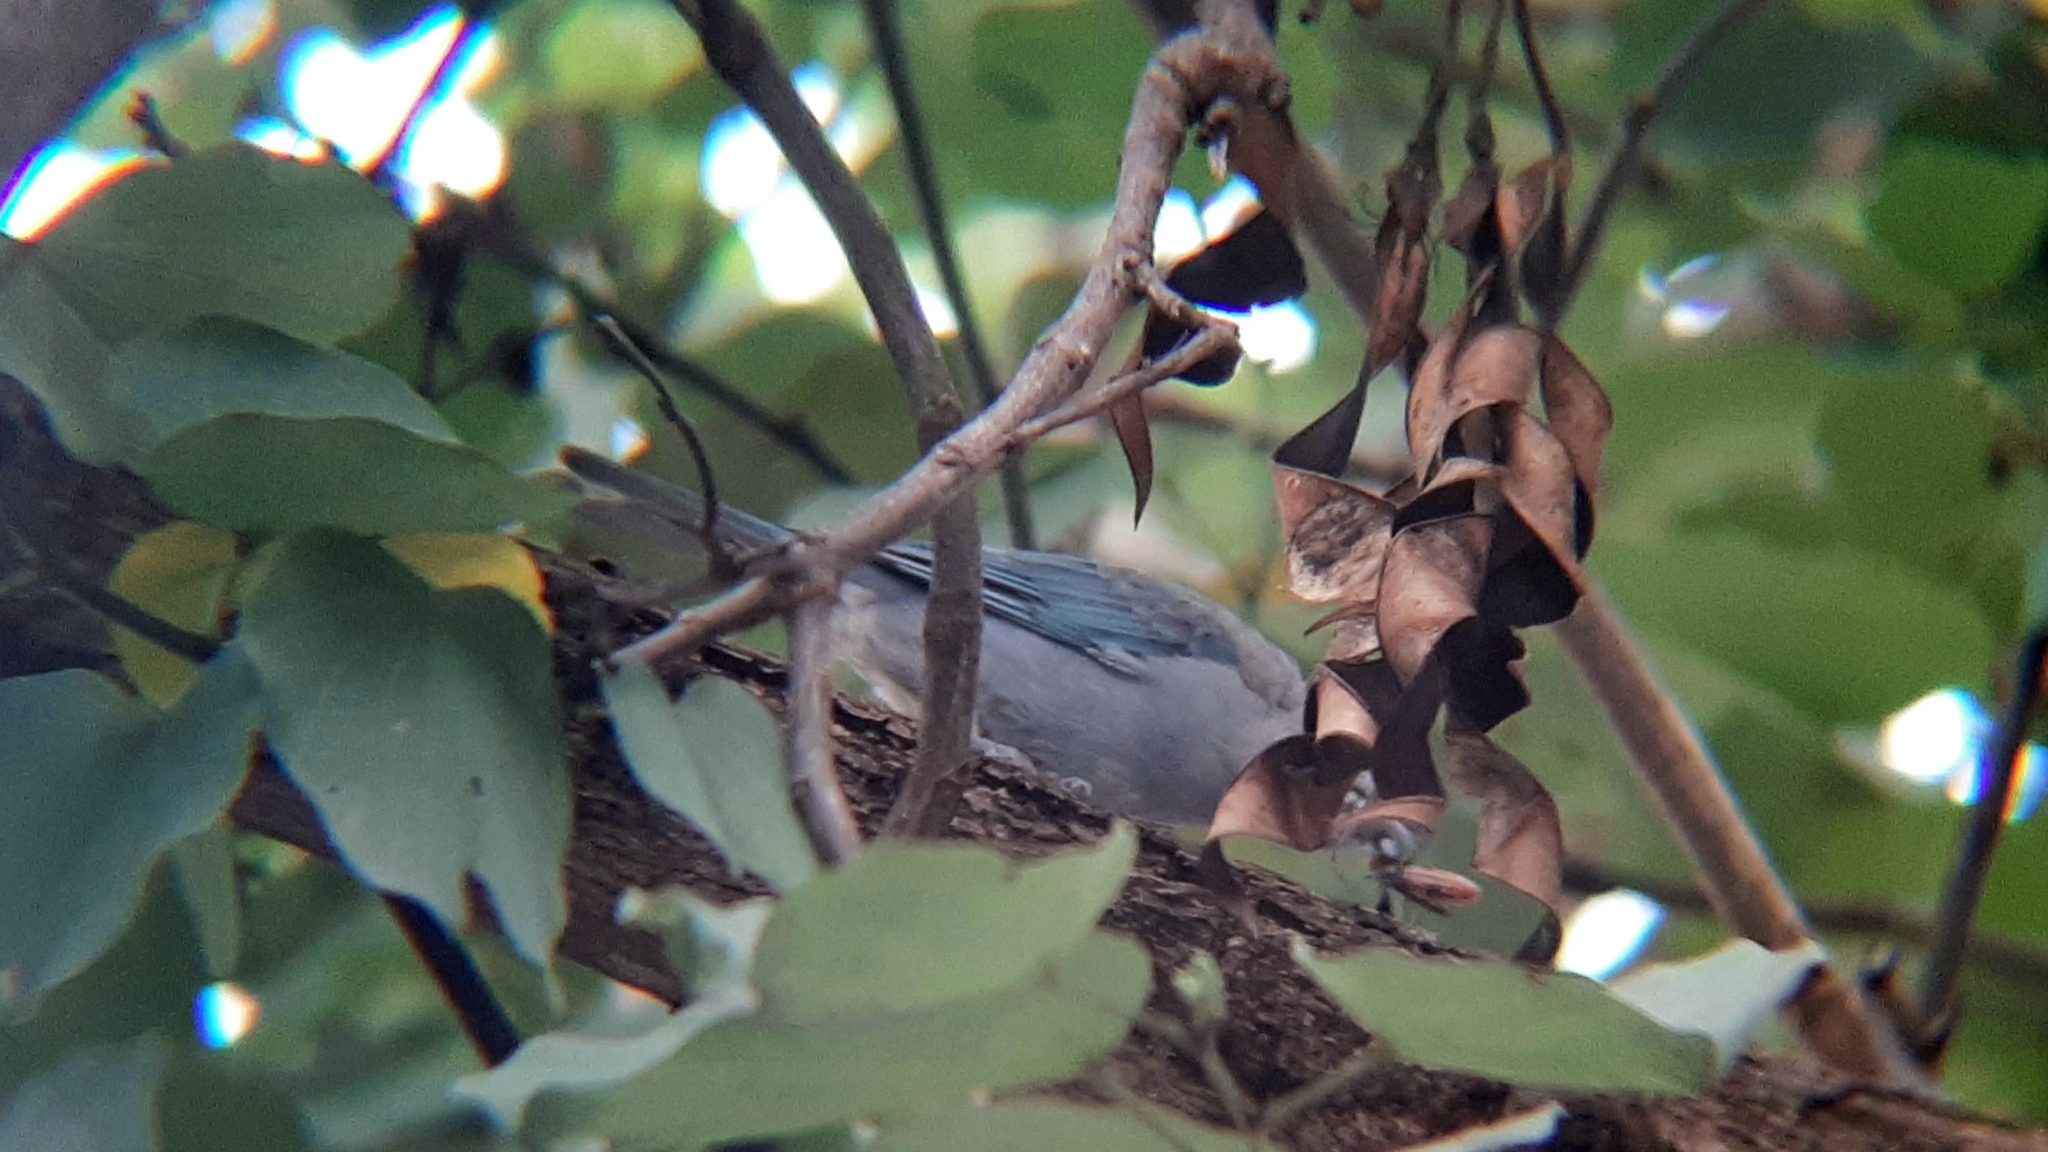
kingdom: Animalia
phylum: Chordata
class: Aves
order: Passeriformes
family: Thraupidae
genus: Thraupis
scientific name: Thraupis sayaca
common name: Sayaca tanager
